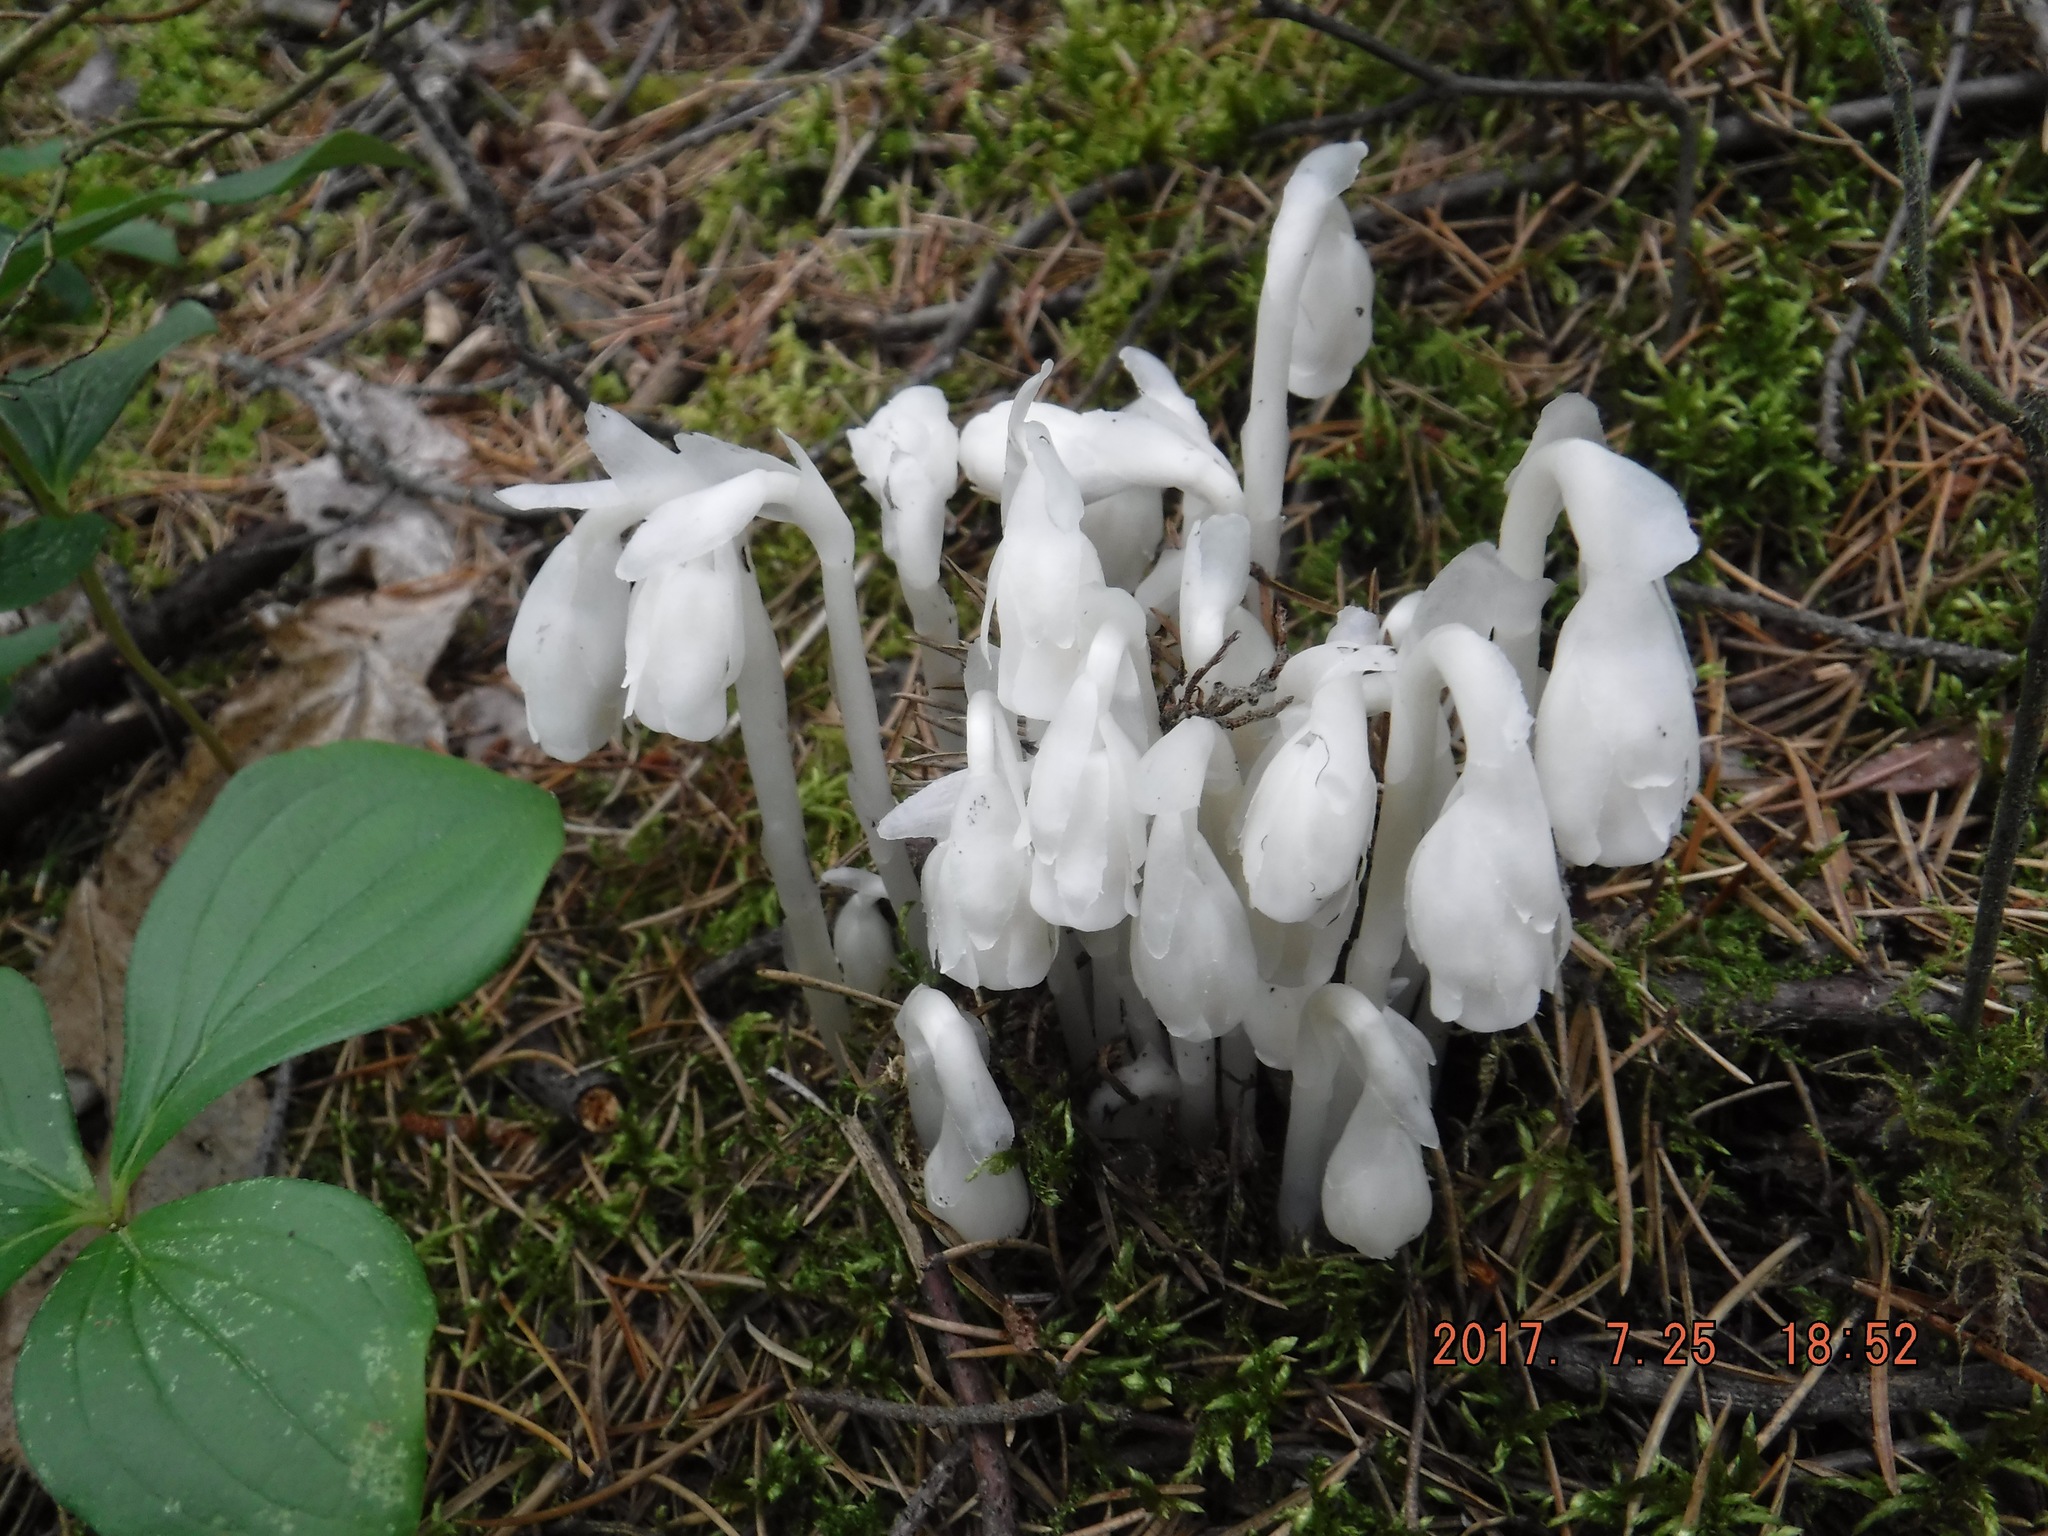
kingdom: Plantae
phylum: Tracheophyta
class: Magnoliopsida
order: Ericales
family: Ericaceae
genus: Monotropa
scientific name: Monotropa uniflora
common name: Convulsion root
